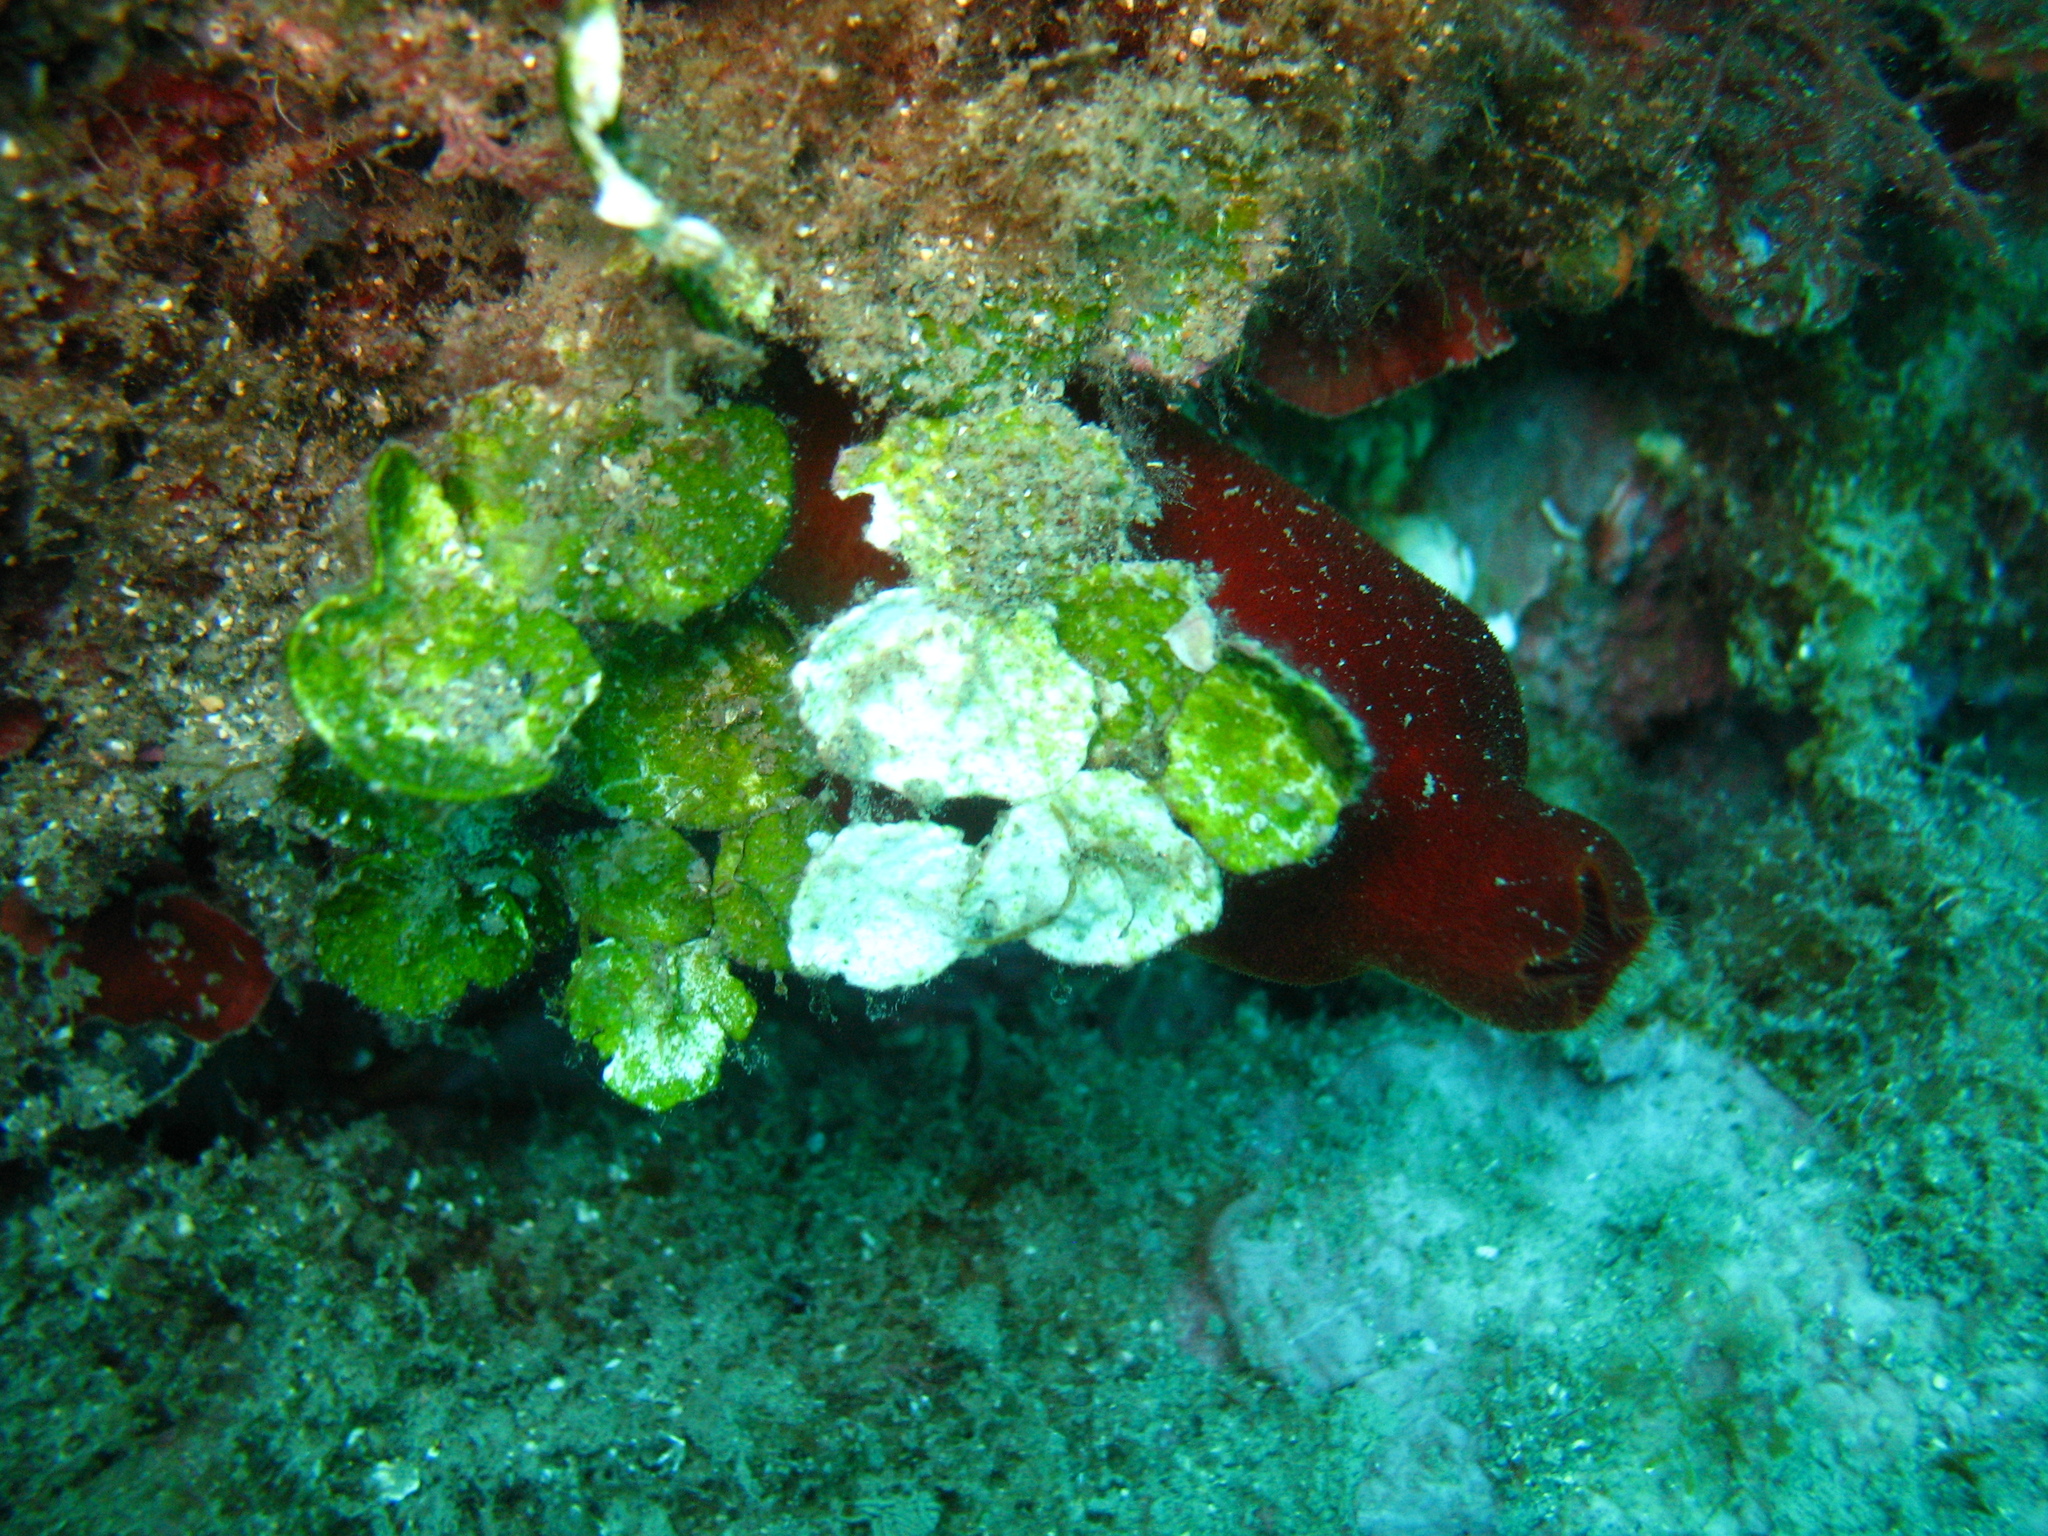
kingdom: Plantae
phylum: Chlorophyta
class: Ulvophyceae
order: Bryopsidales
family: Halimedaceae
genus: Halimeda
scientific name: Halimeda tuna
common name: Stalked lettuce leaf algae
